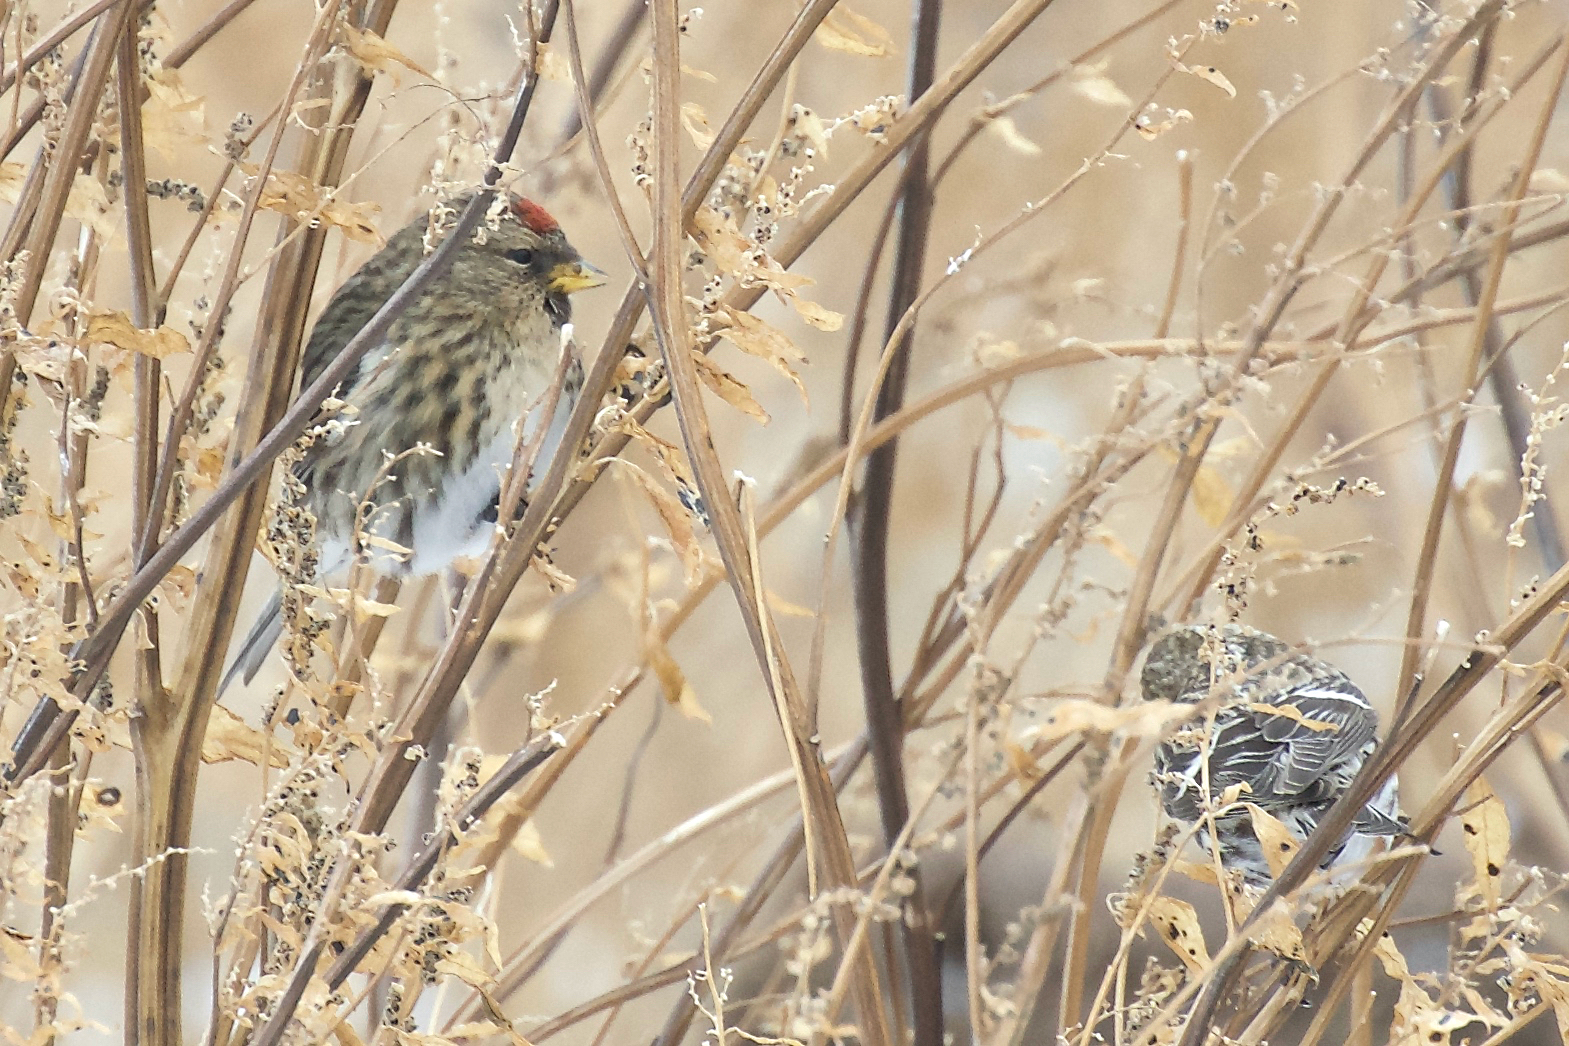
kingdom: Animalia
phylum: Chordata
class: Aves
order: Passeriformes
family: Fringillidae
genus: Acanthis
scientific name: Acanthis flammea
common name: Common redpoll
